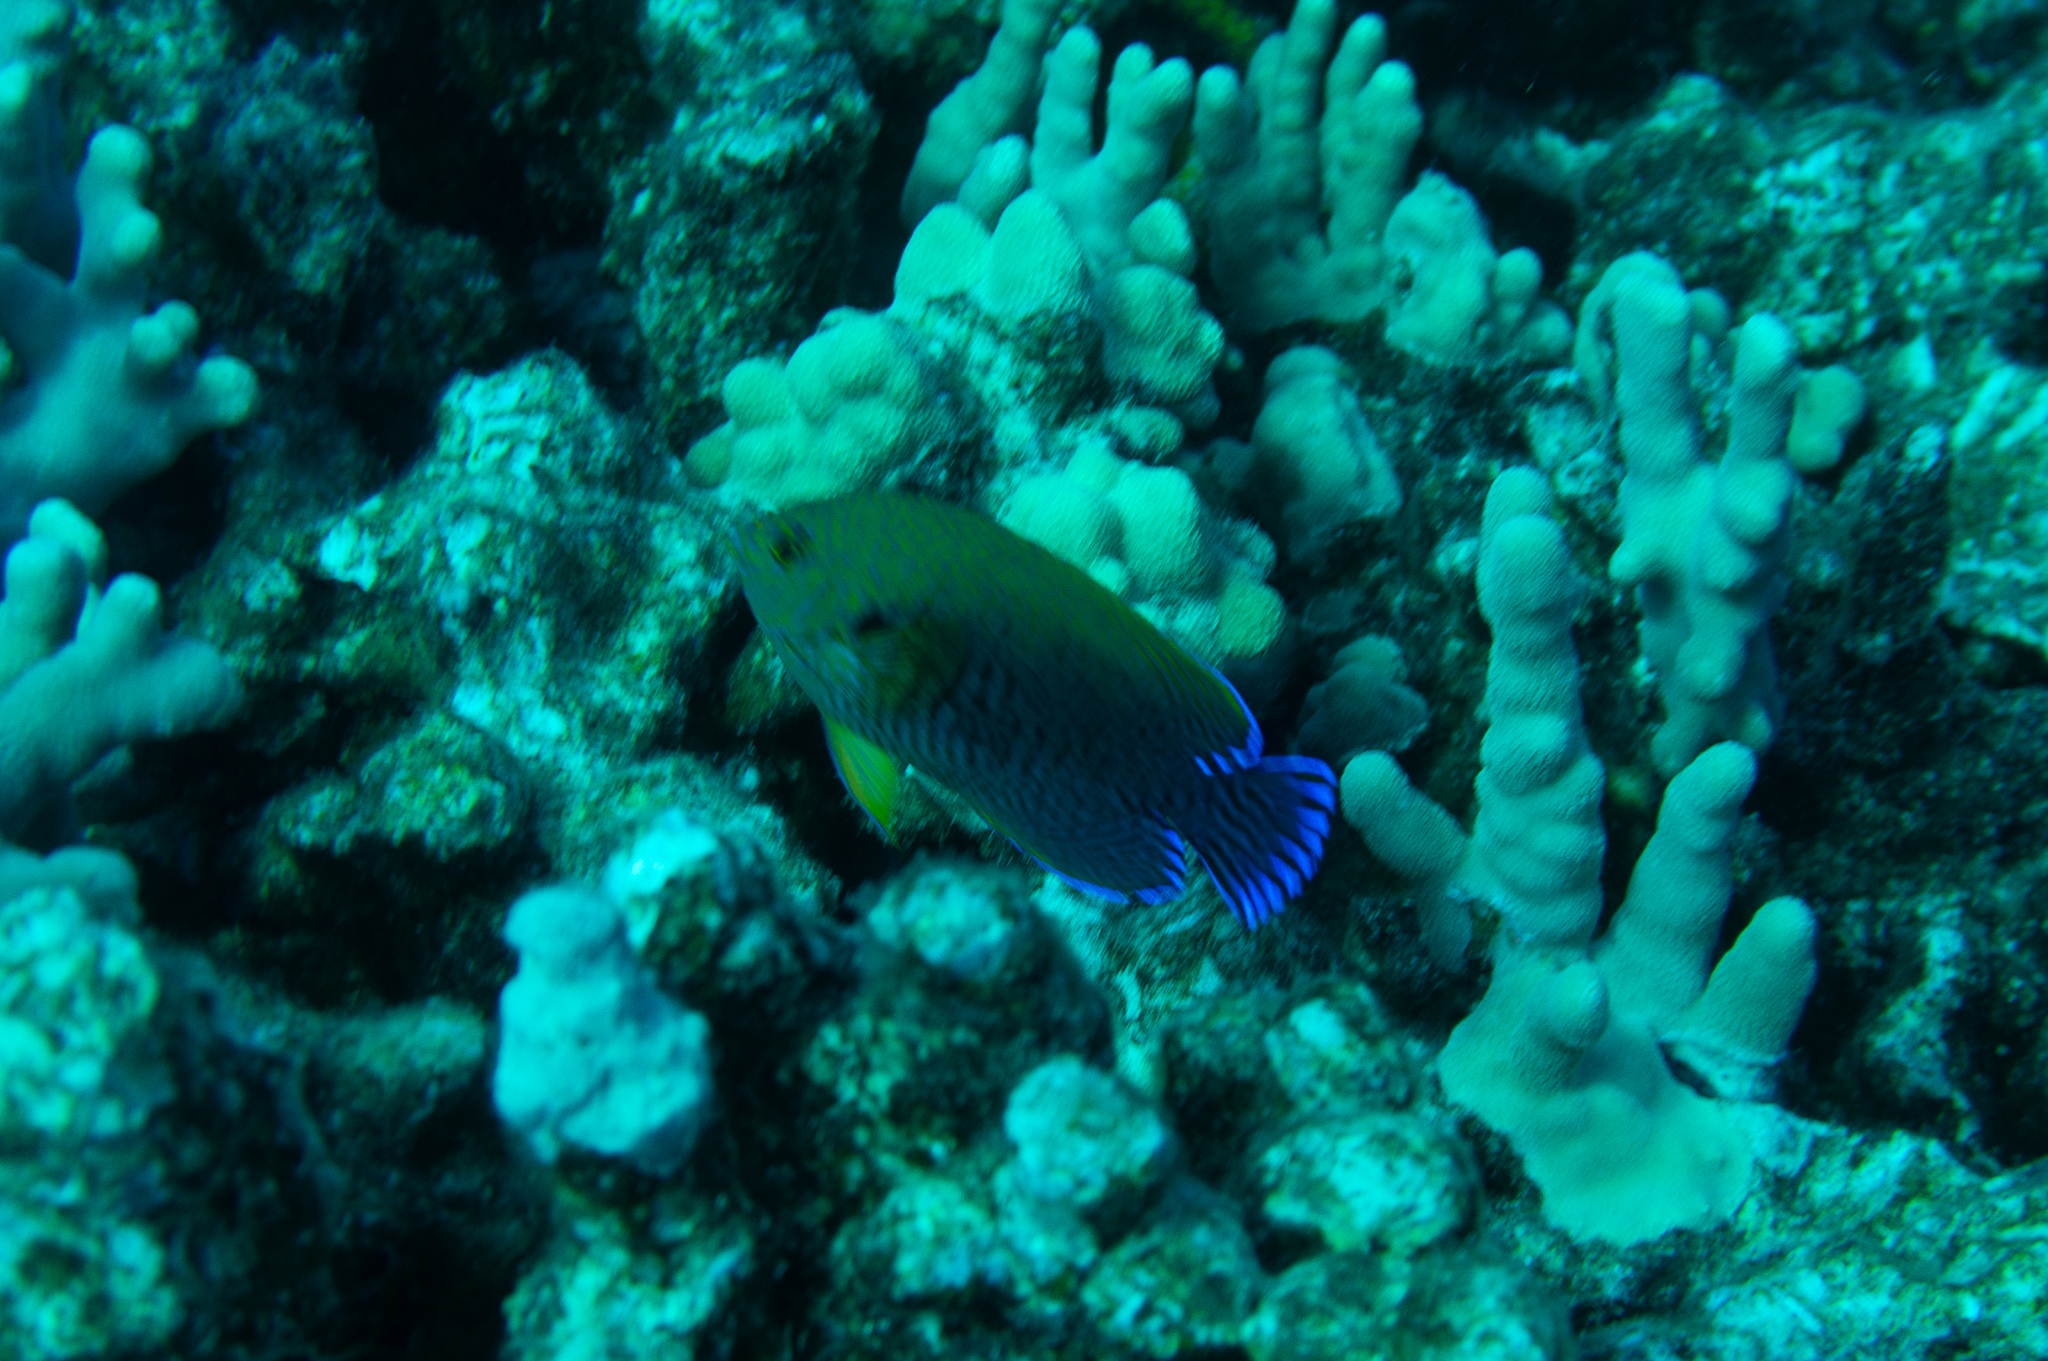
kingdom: Animalia
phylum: Chordata
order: Perciformes
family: Pomacanthidae
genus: Centropyge
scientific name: Centropyge potteri
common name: Potter's angelfish
